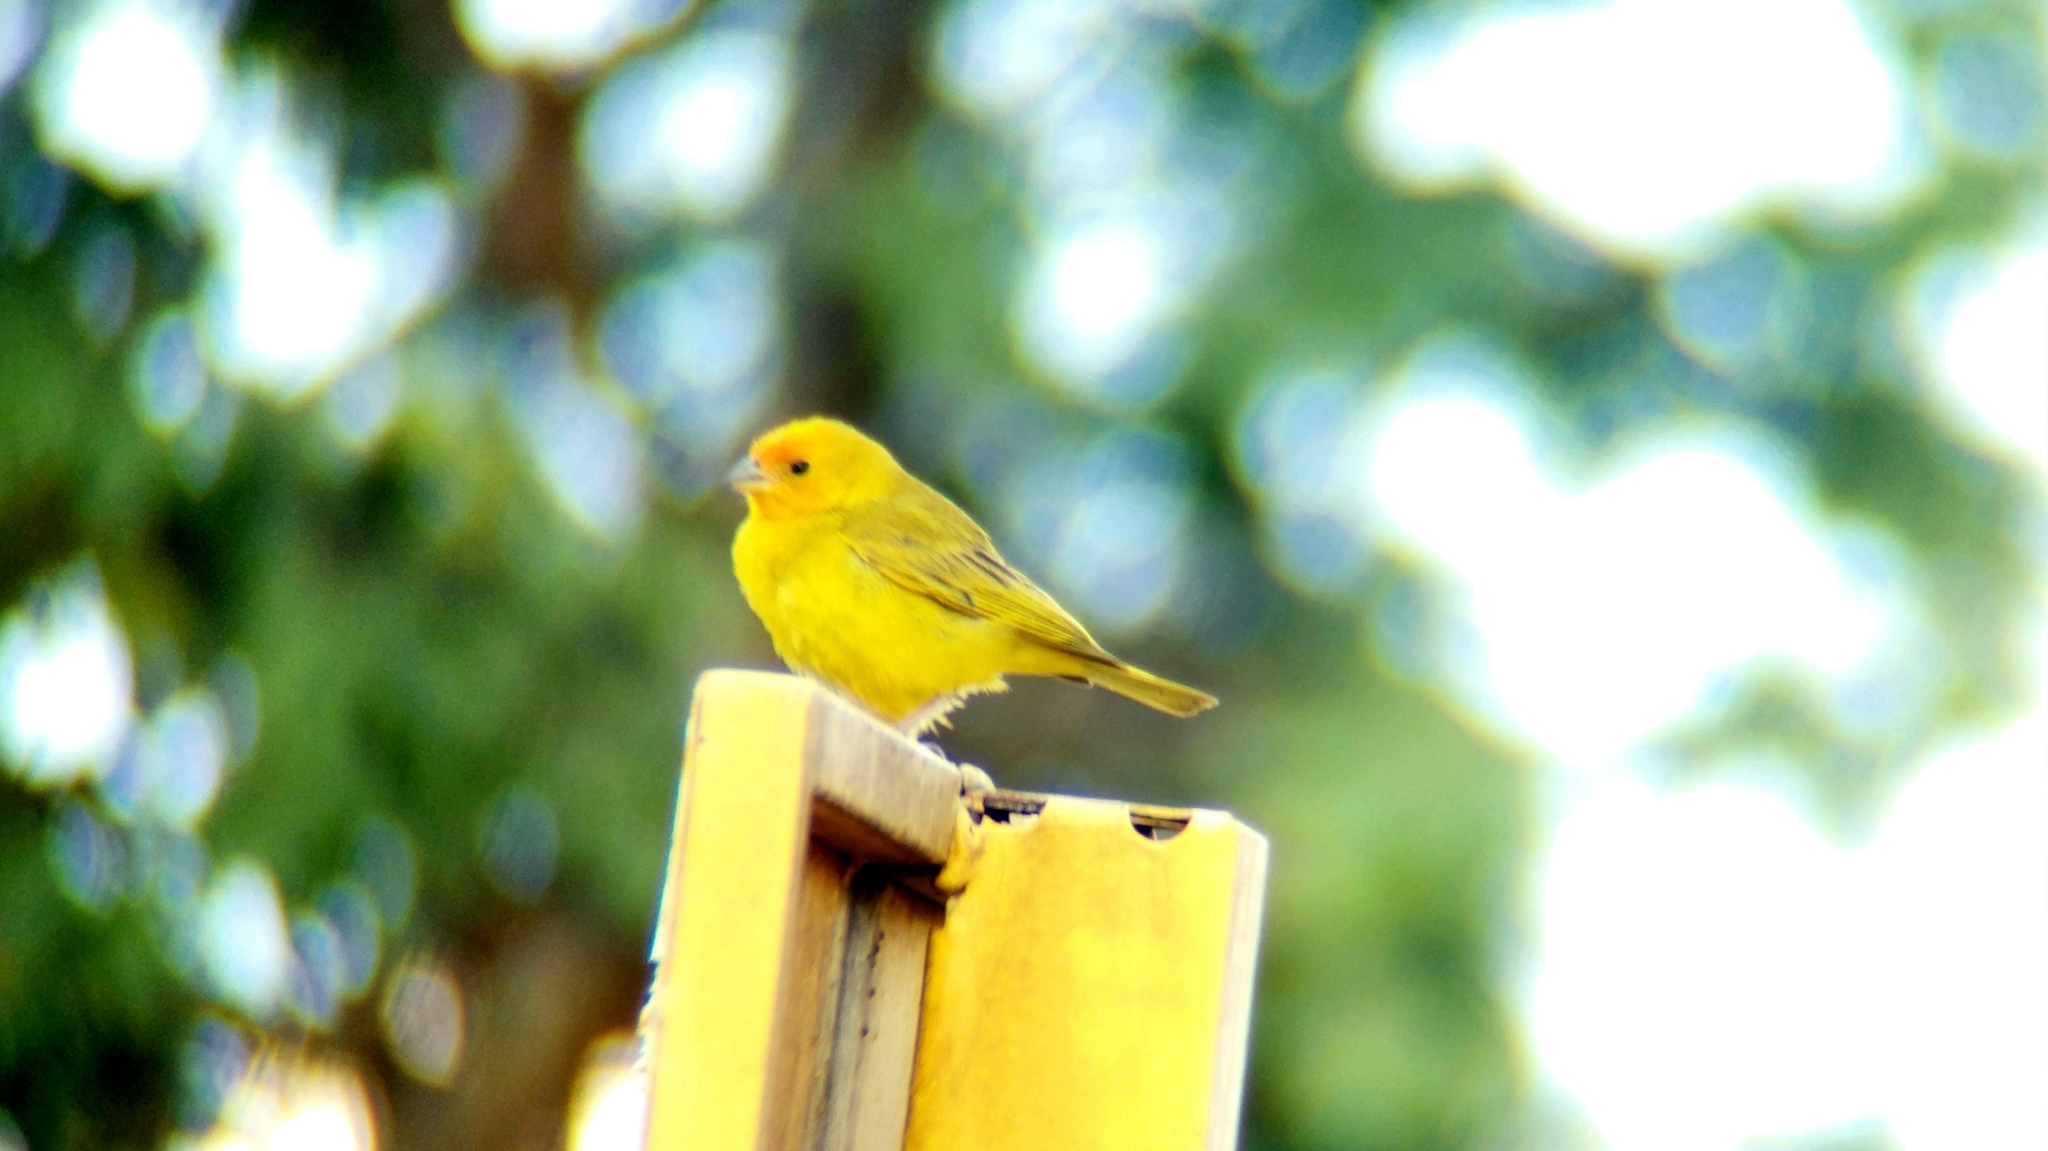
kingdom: Animalia
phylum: Chordata
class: Aves
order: Passeriformes
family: Thraupidae
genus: Sicalis
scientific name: Sicalis flaveola
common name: Saffron finch
